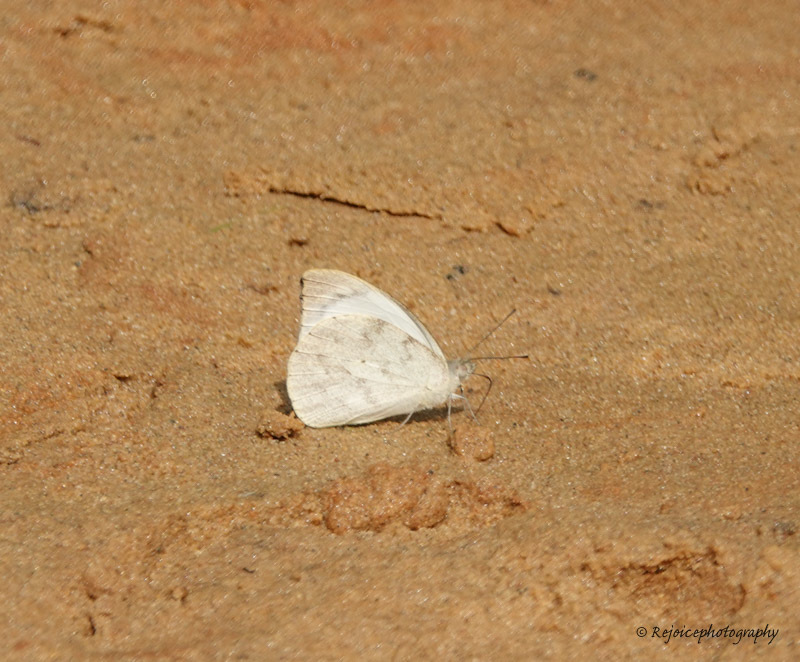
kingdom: Animalia
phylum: Arthropoda
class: Insecta
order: Lepidoptera
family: Pieridae
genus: Appias
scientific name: Appias indra
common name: Plain puffin
